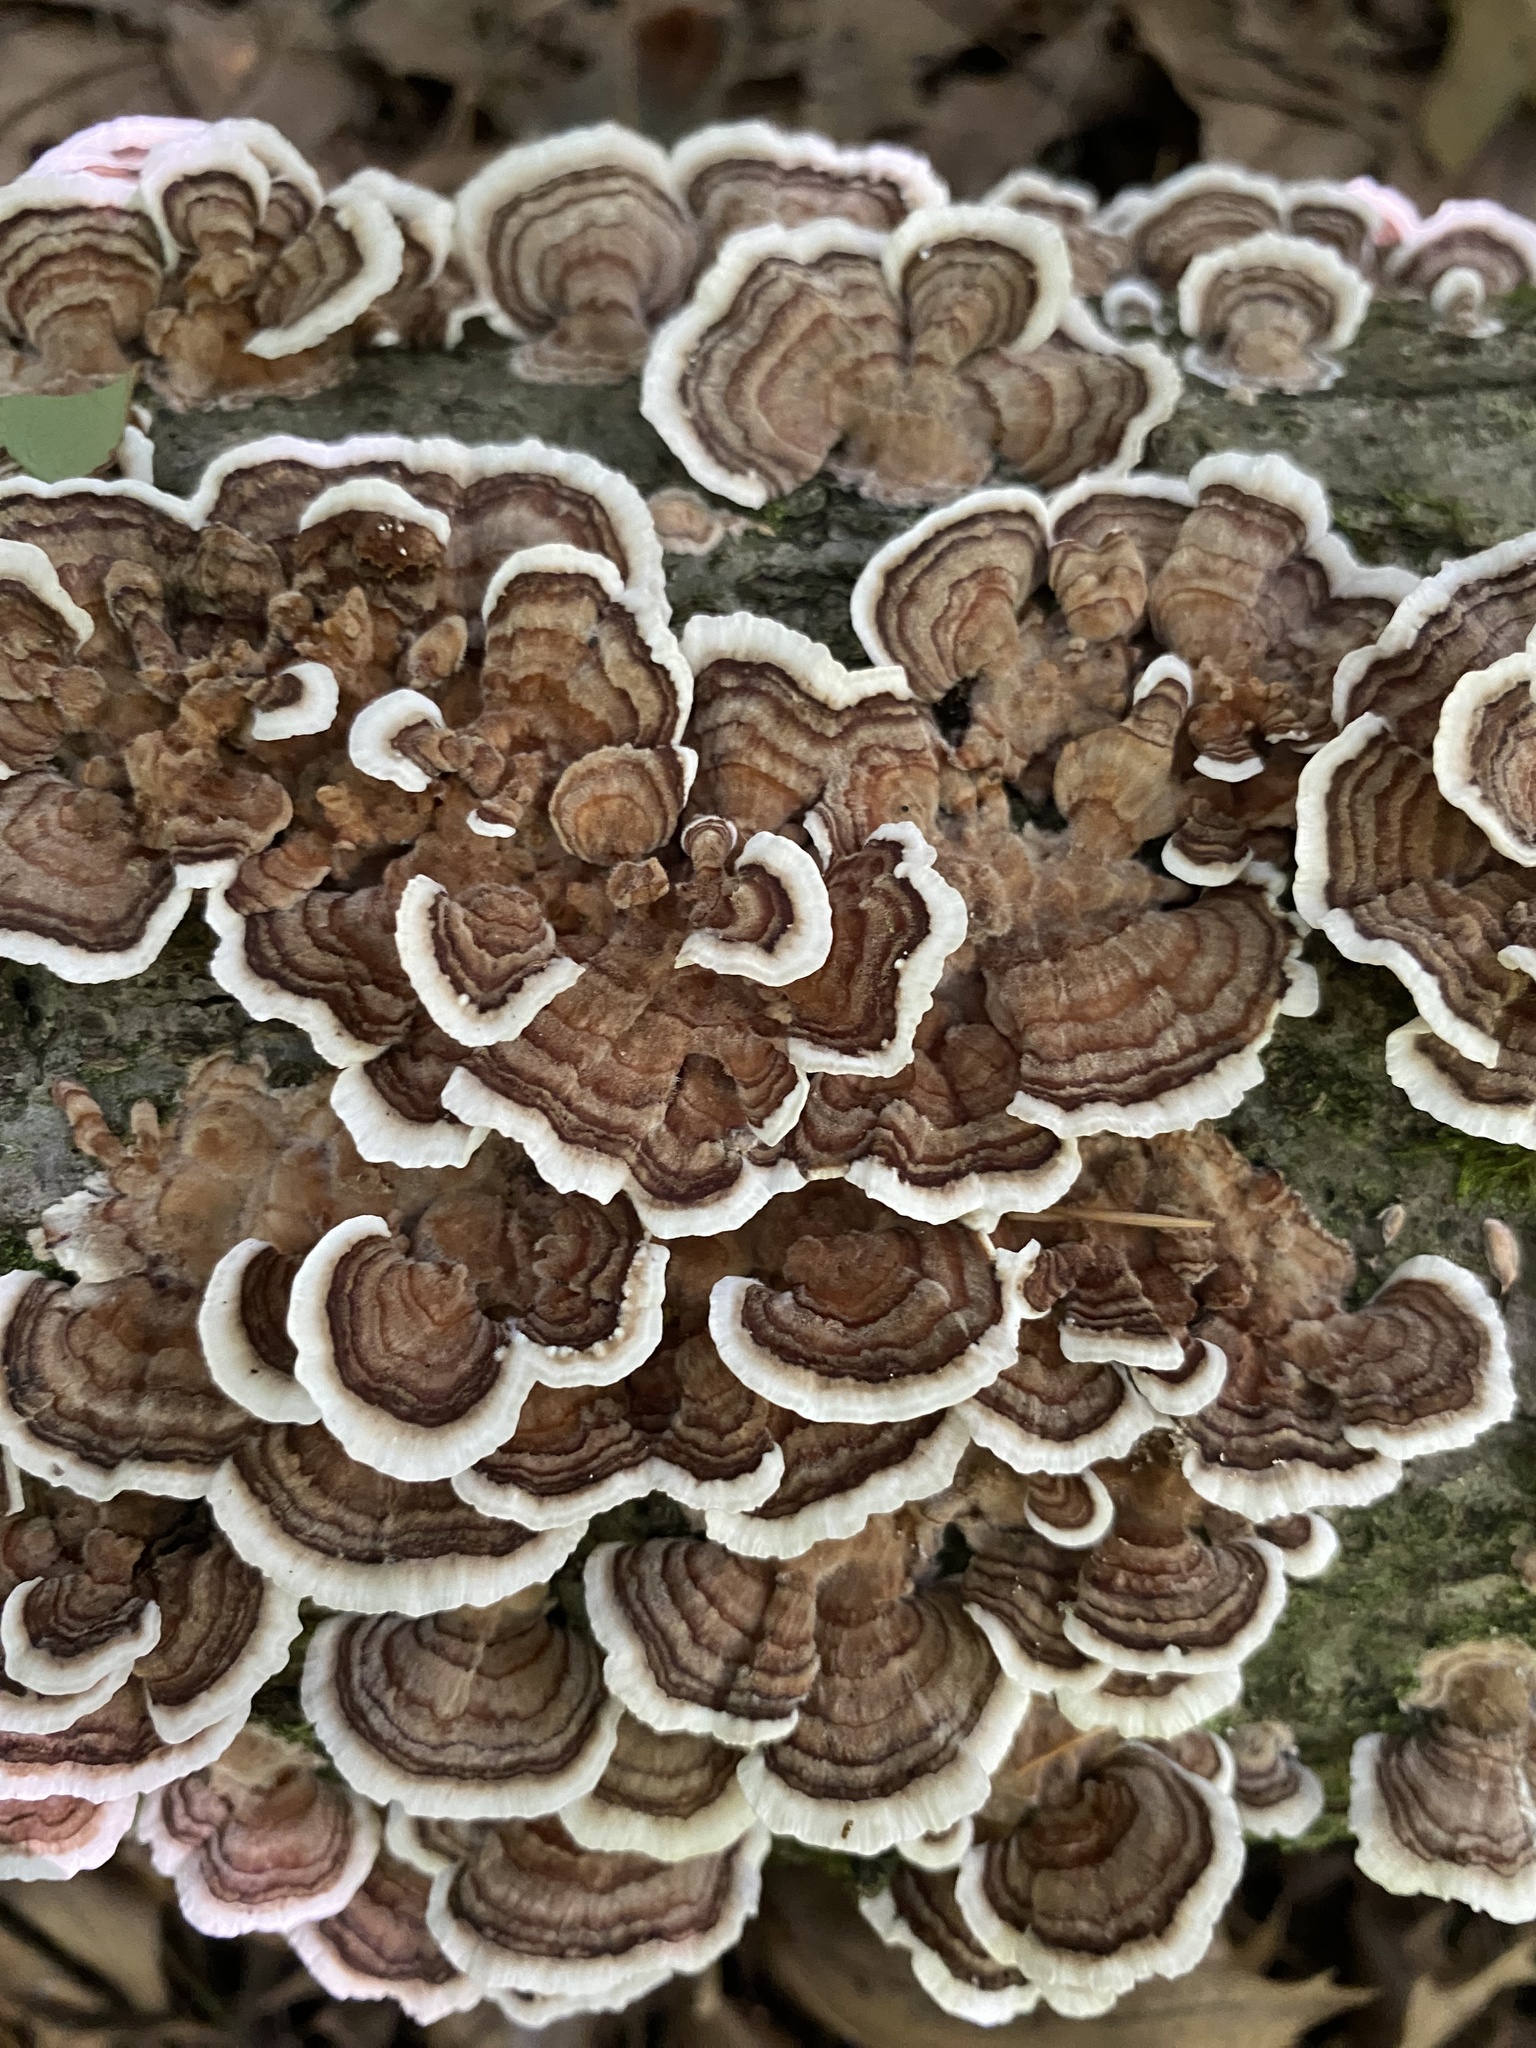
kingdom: Fungi
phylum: Basidiomycota
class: Agaricomycetes
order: Polyporales
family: Polyporaceae
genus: Trametes
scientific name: Trametes versicolor
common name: Turkeytail
